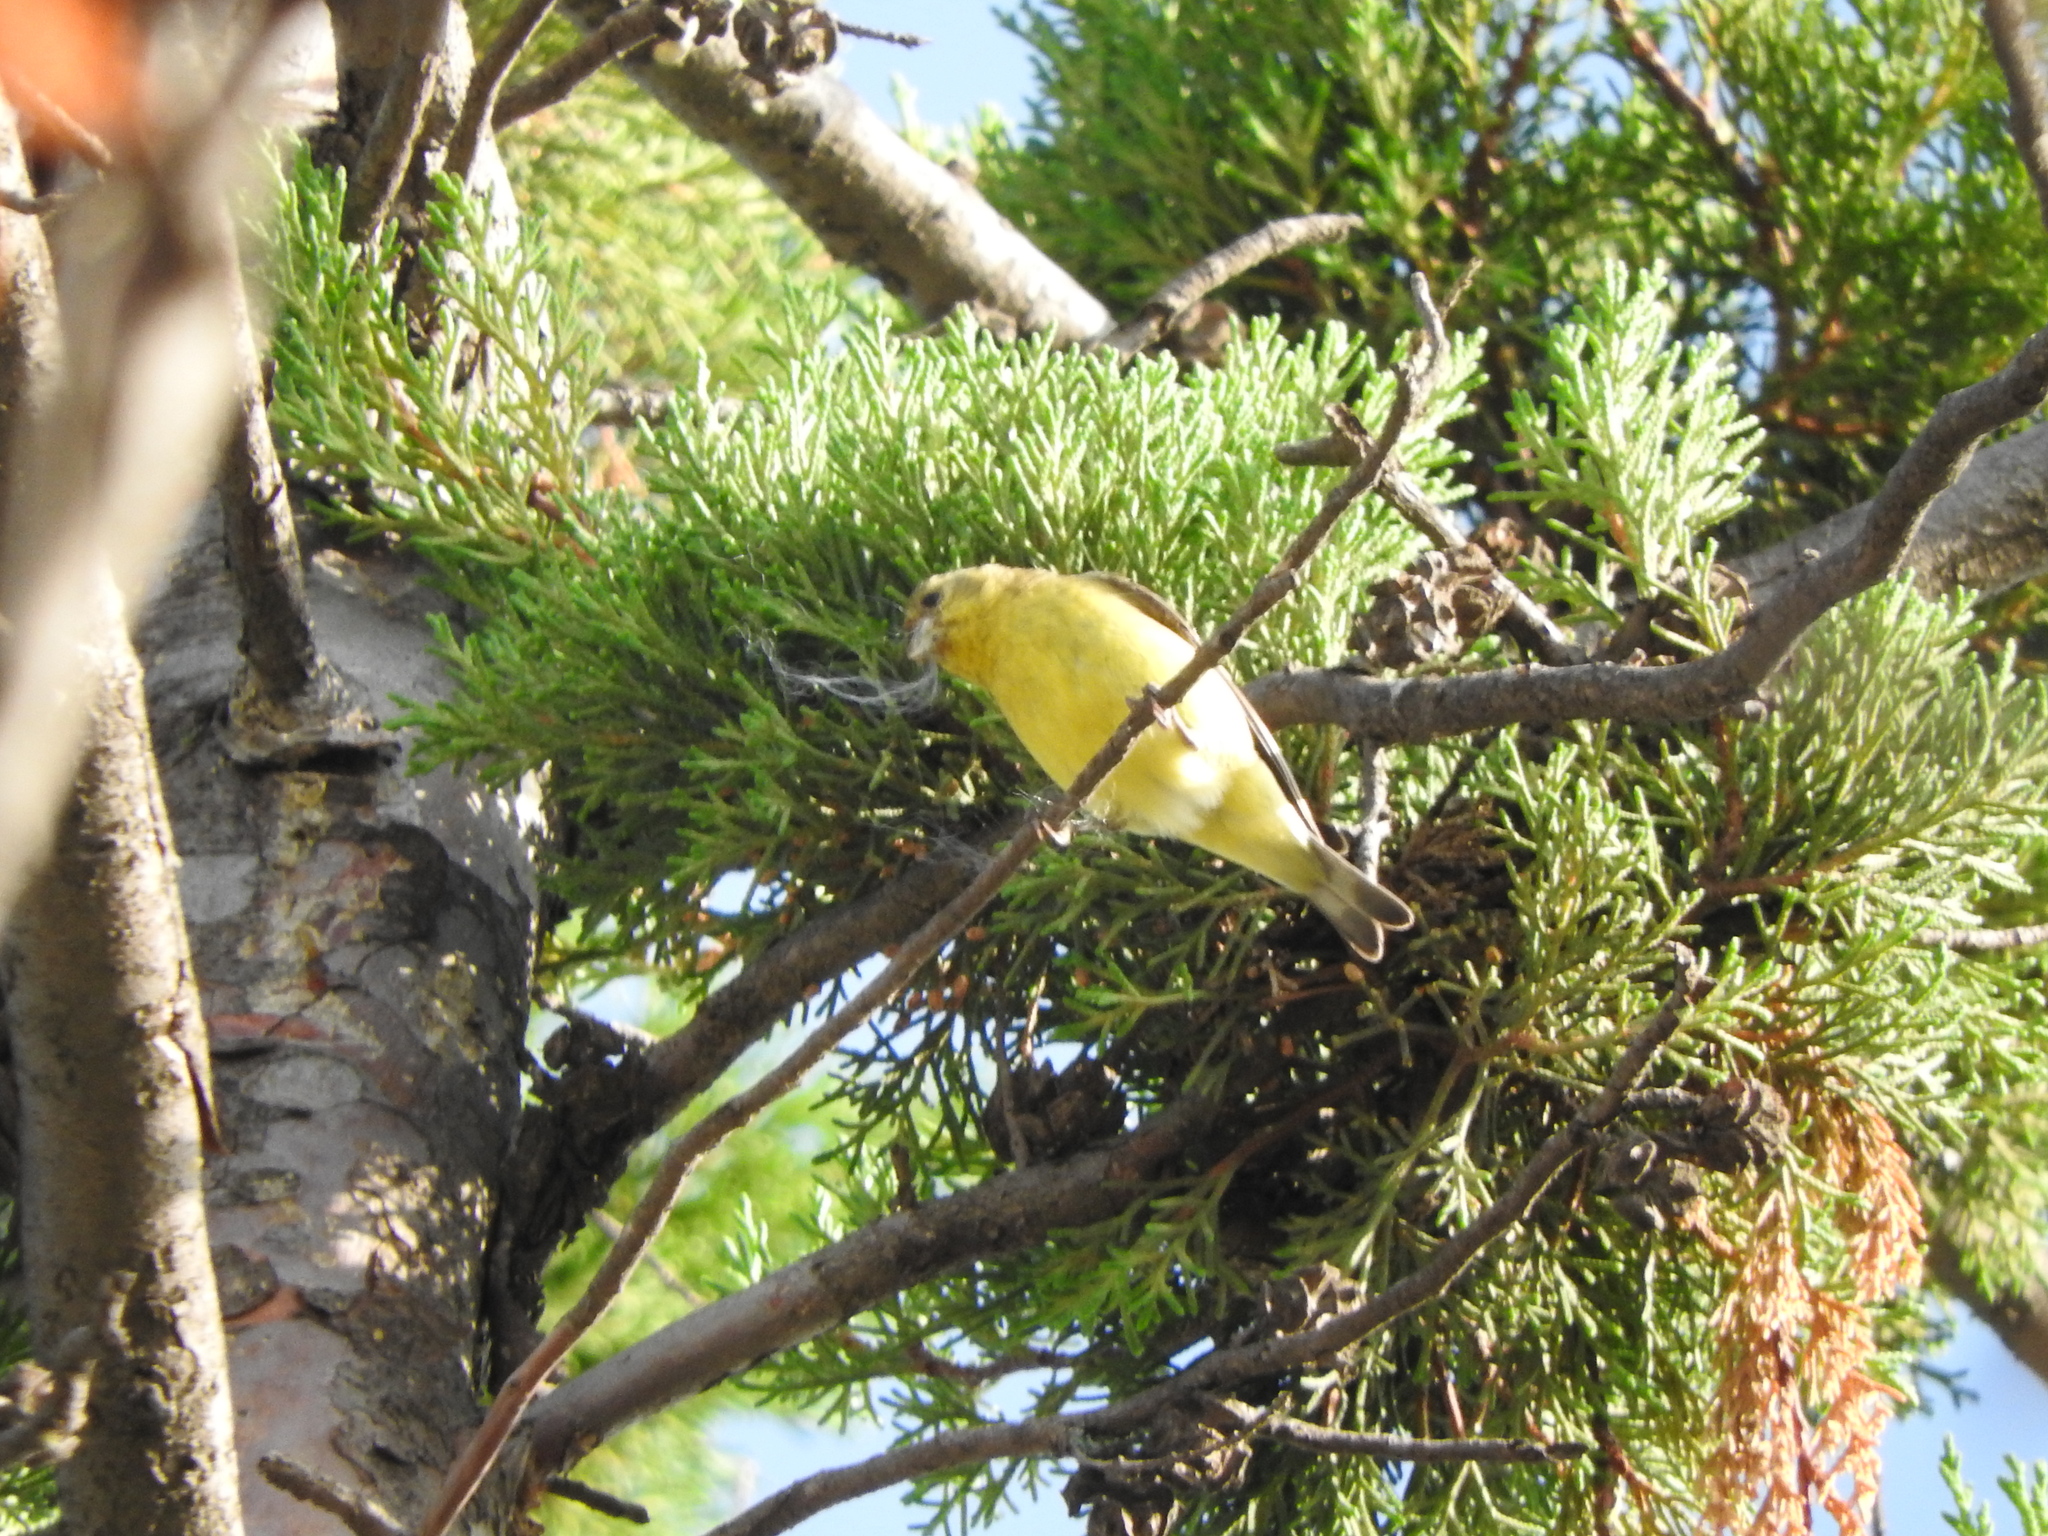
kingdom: Animalia
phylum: Chordata
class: Aves
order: Passeriformes
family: Fringillidae
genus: Spinus
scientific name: Spinus psaltria
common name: Lesser goldfinch
